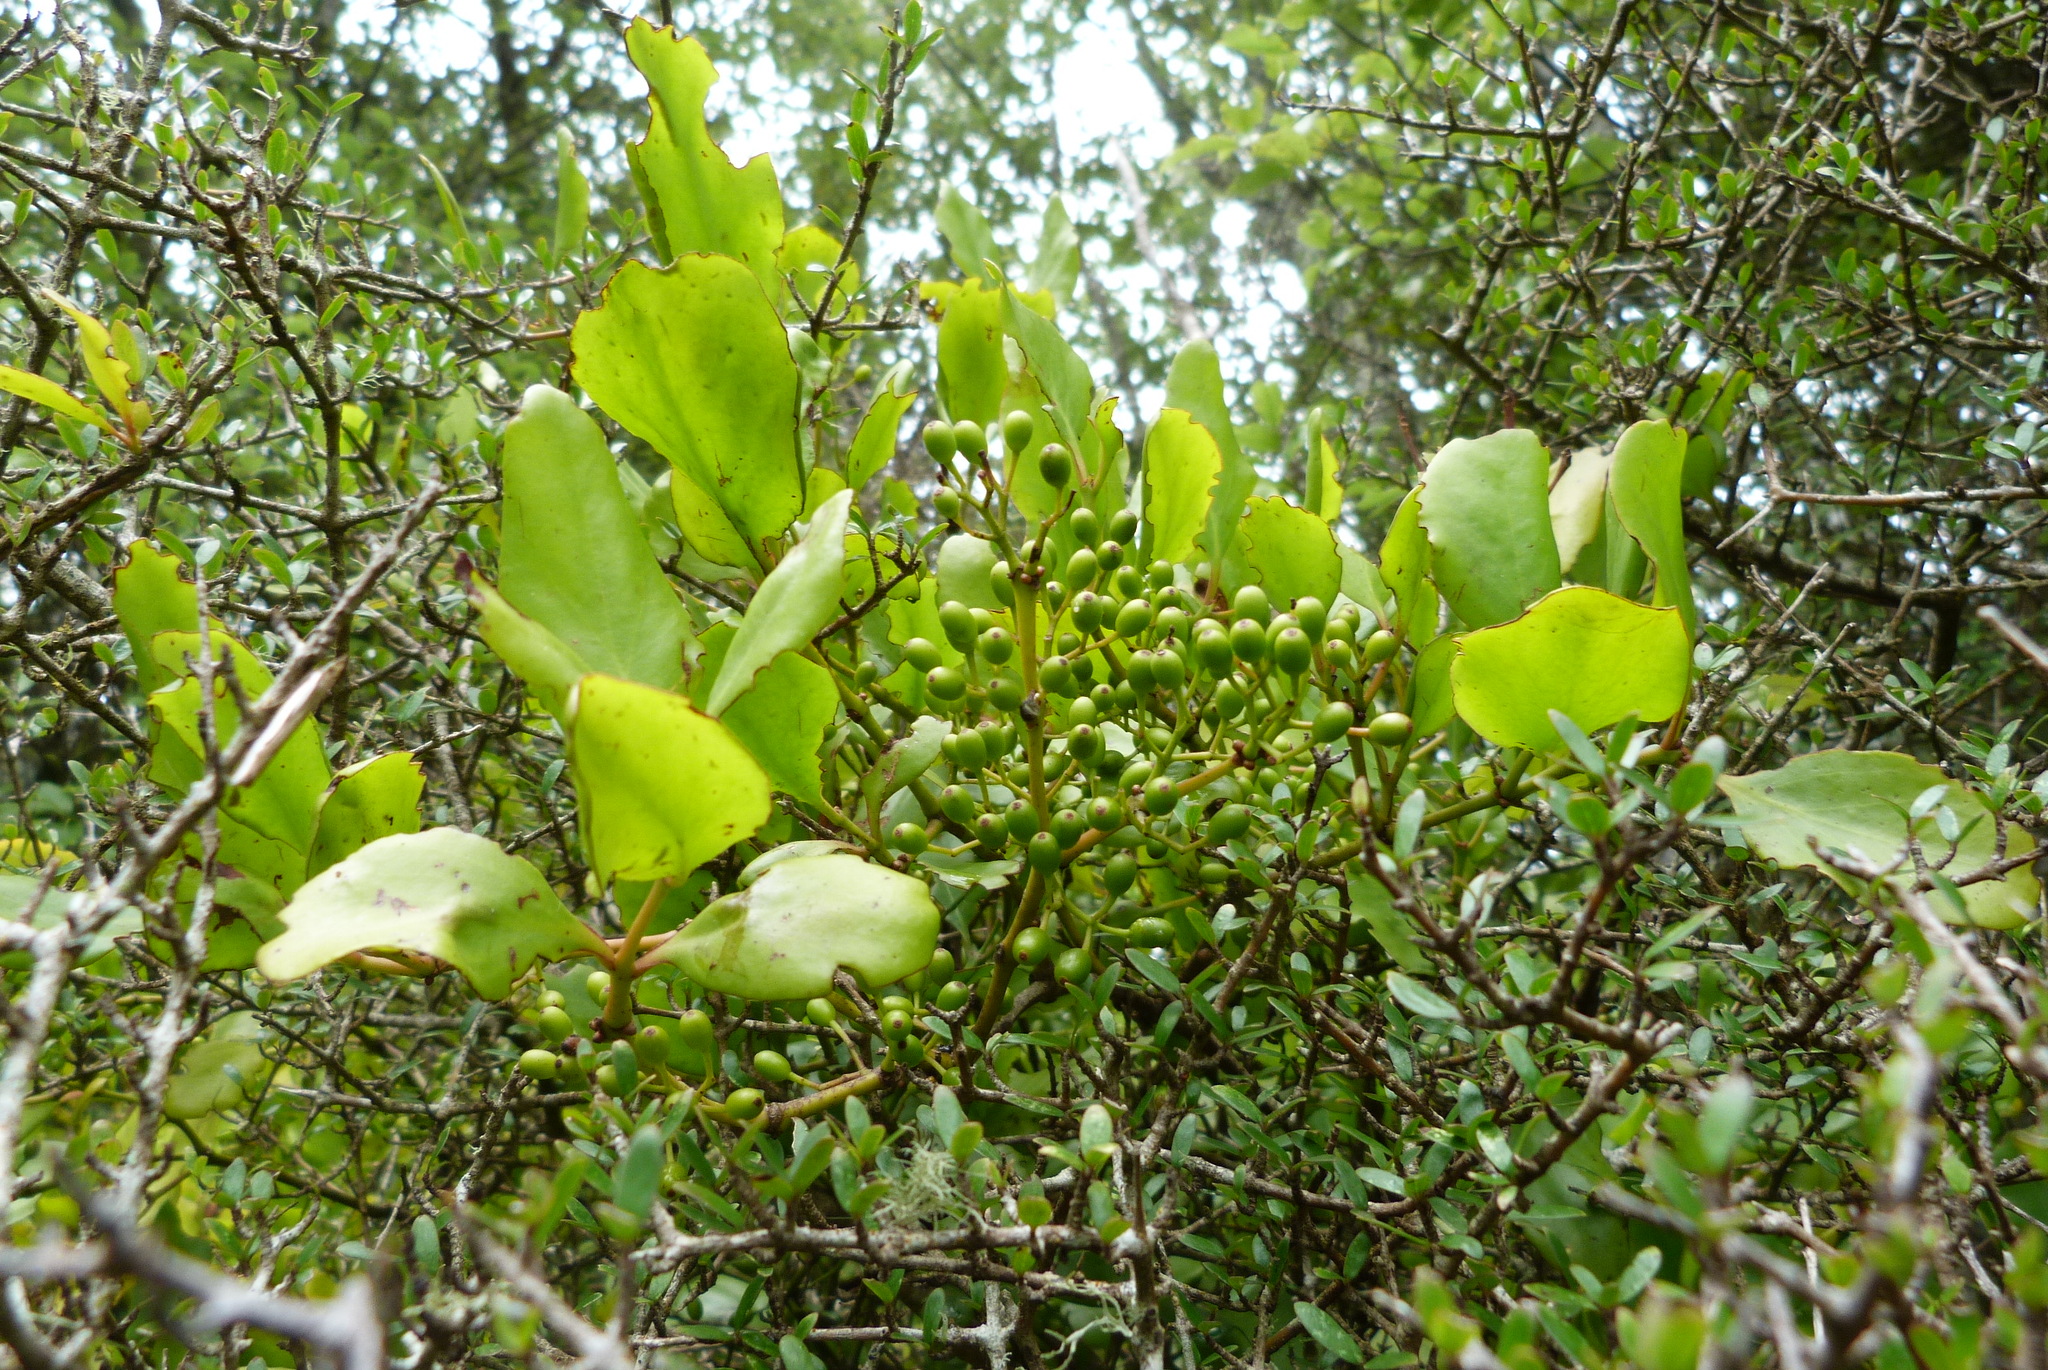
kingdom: Plantae
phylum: Tracheophyta
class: Magnoliopsida
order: Santalales
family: Loranthaceae
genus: Ileostylus
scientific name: Ileostylus micranthus
